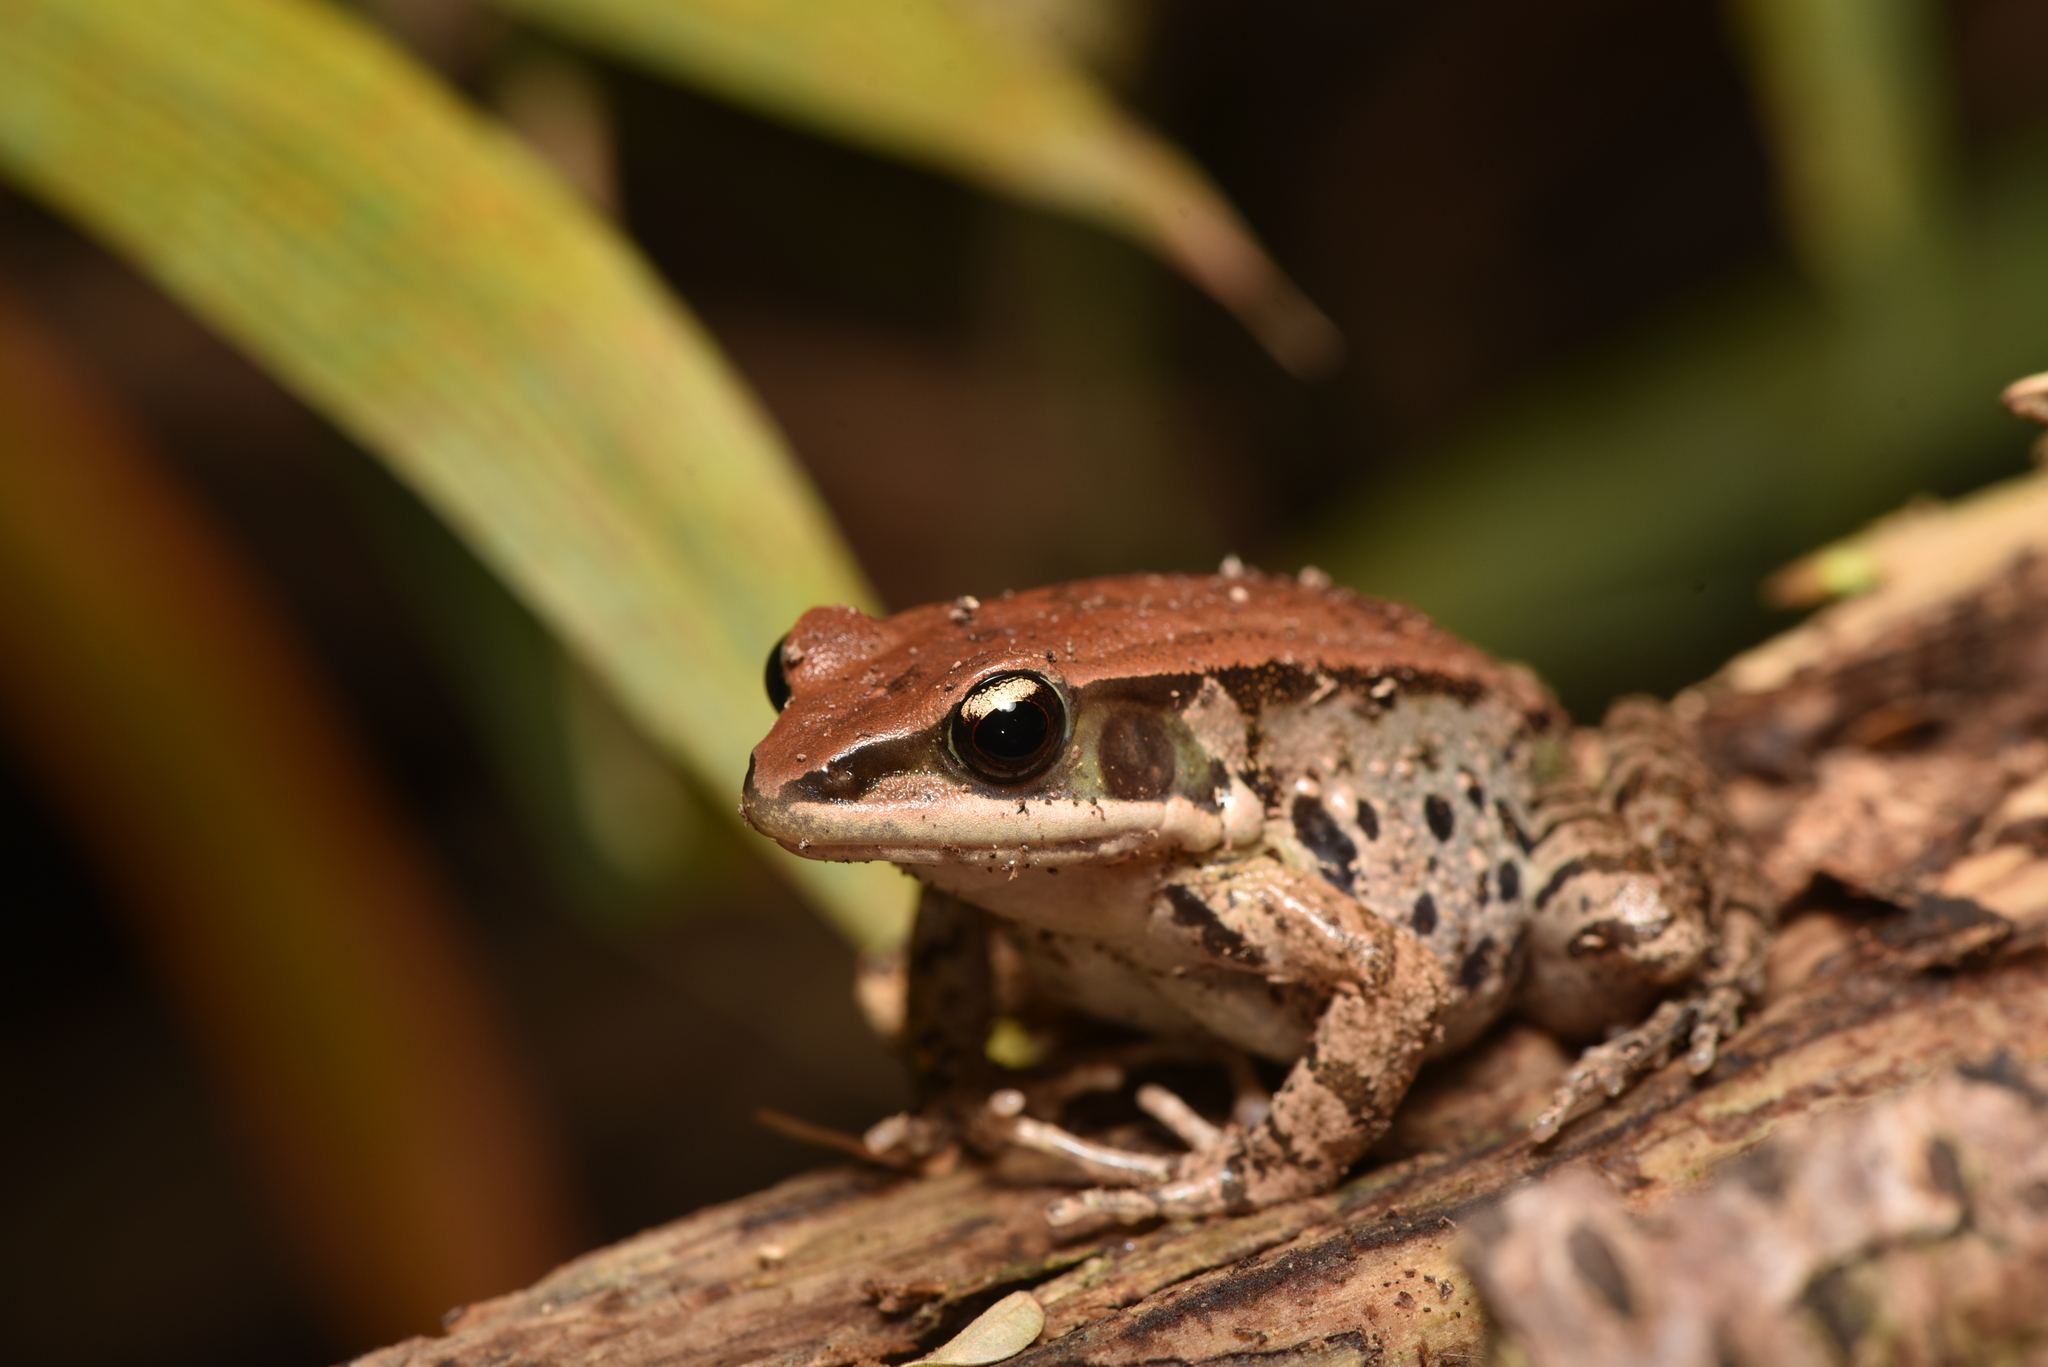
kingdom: Animalia
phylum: Chordata
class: Amphibia
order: Anura
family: Ranidae
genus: Hylarana
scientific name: Hylarana latouchii
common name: Broad-folded frog
